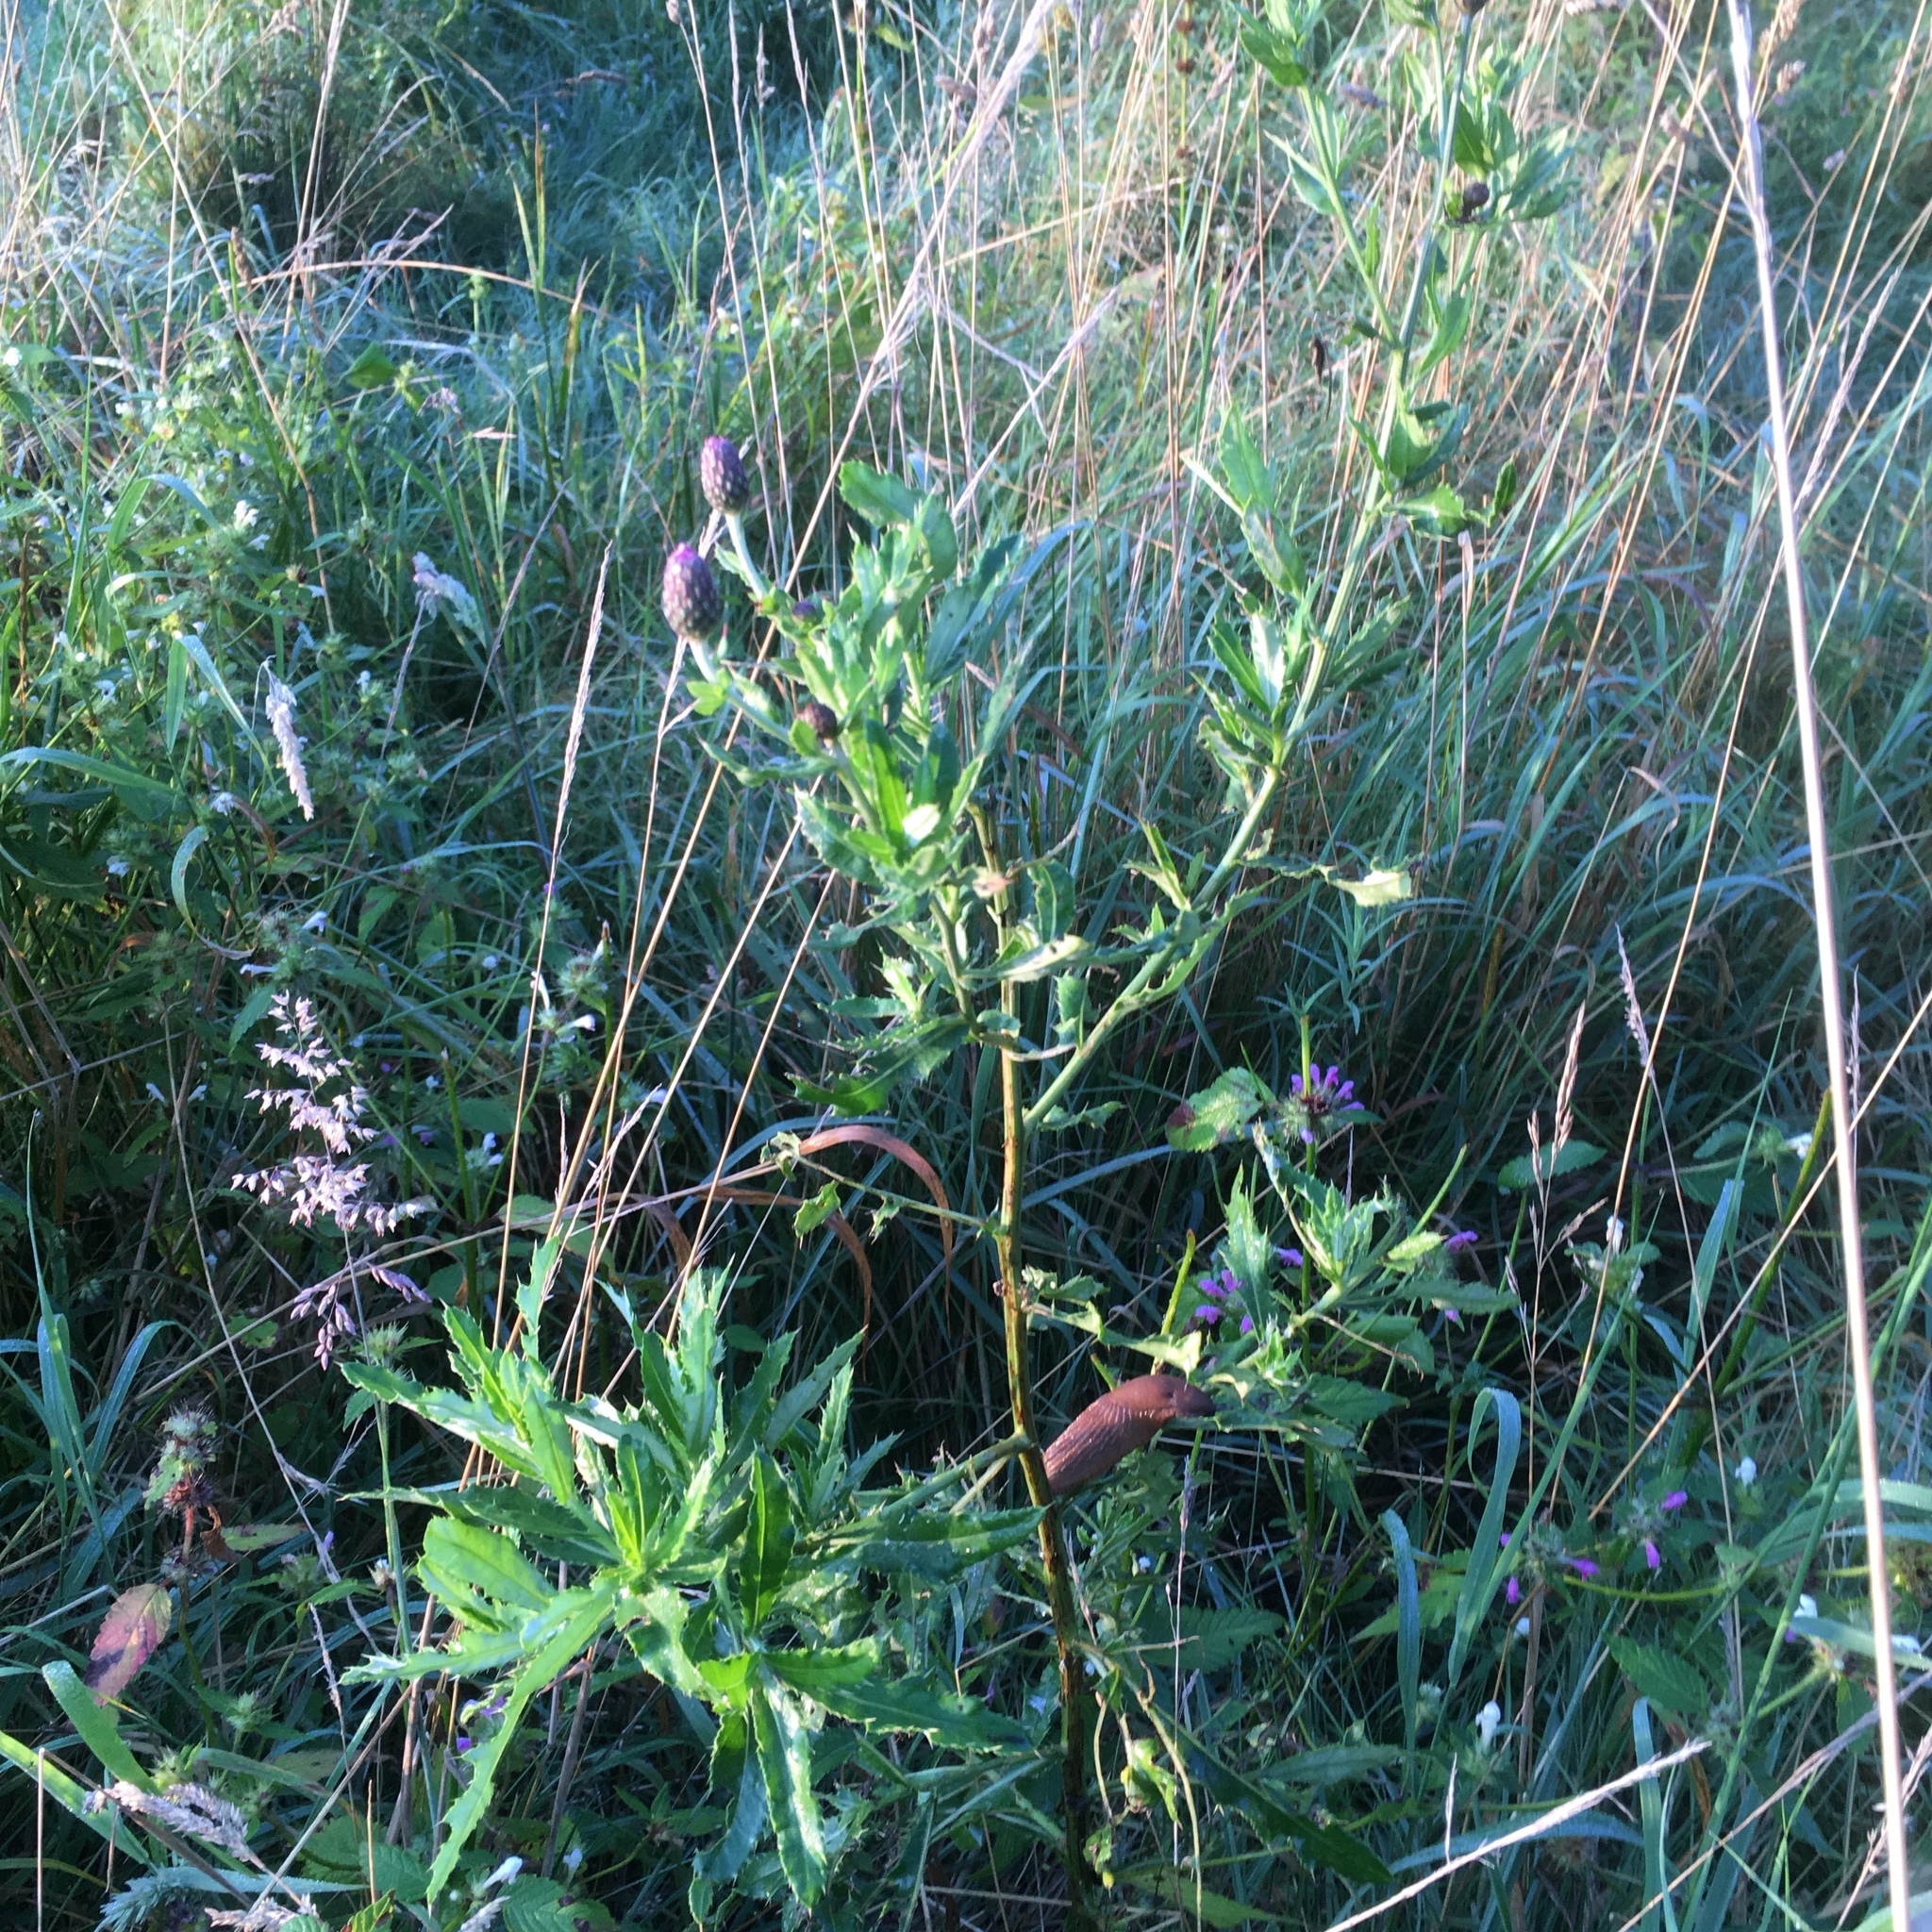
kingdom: Plantae
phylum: Tracheophyta
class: Magnoliopsida
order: Asterales
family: Asteraceae
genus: Cirsium
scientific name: Cirsium arvense
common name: Creeping thistle
